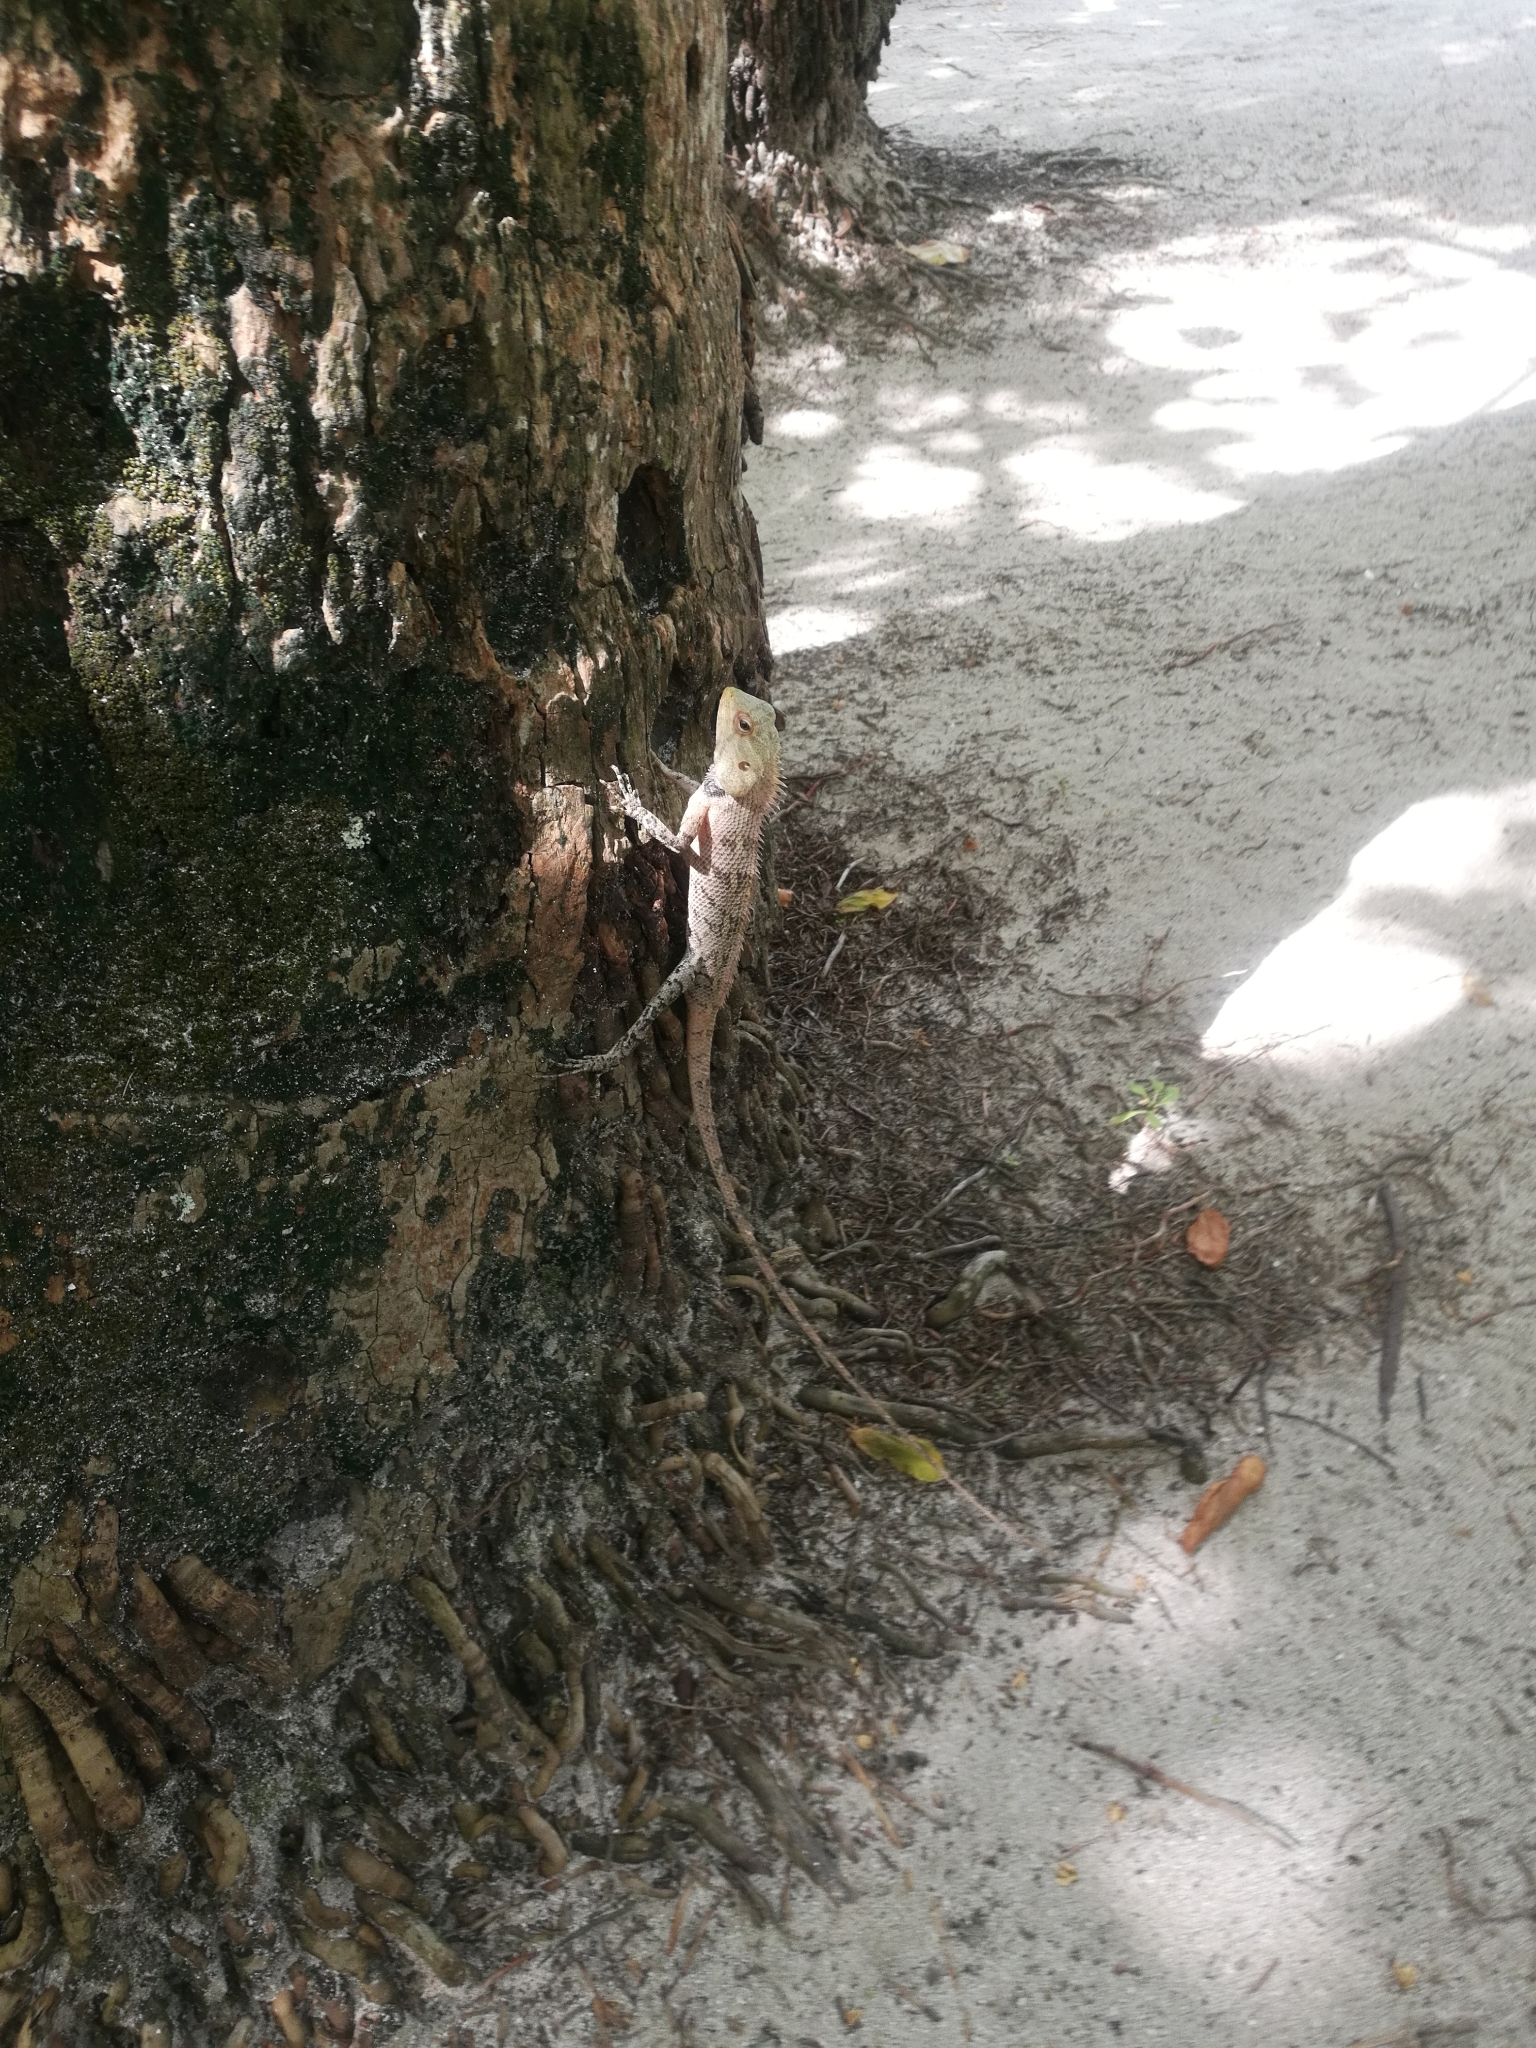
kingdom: Animalia
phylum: Chordata
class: Squamata
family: Agamidae
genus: Calotes
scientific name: Calotes versicolor
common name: Oriental garden lizard
